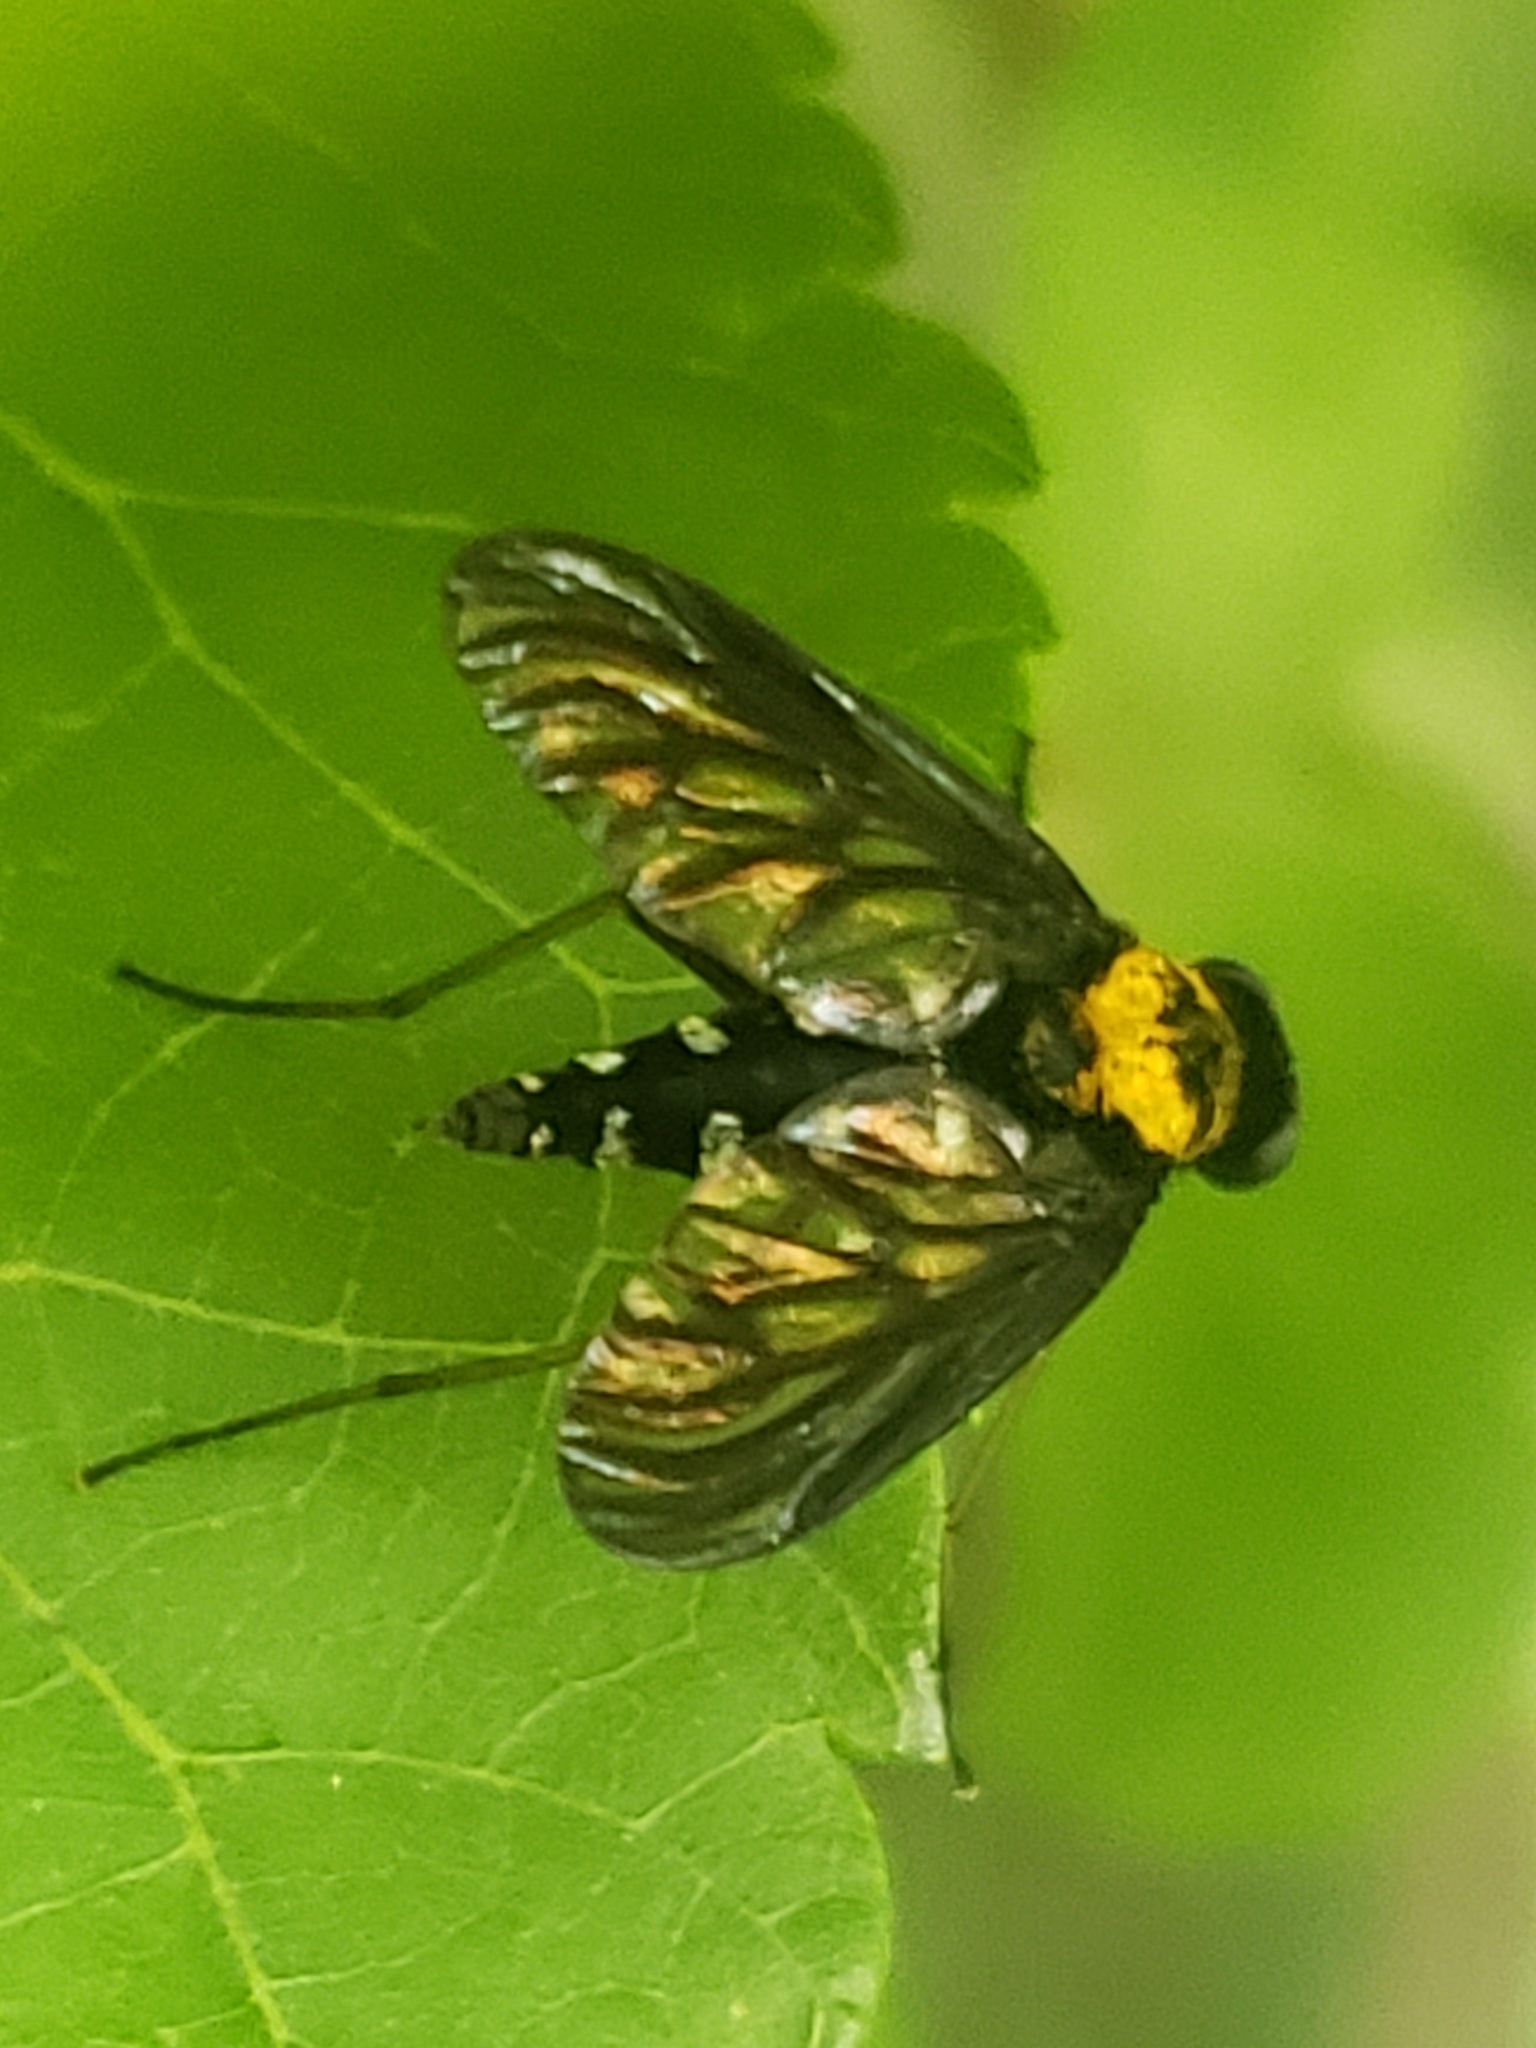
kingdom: Animalia
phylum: Arthropoda
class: Insecta
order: Diptera
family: Rhagionidae
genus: Chrysopilus
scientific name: Chrysopilus thoracicus
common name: Golden-backed snipe fly
